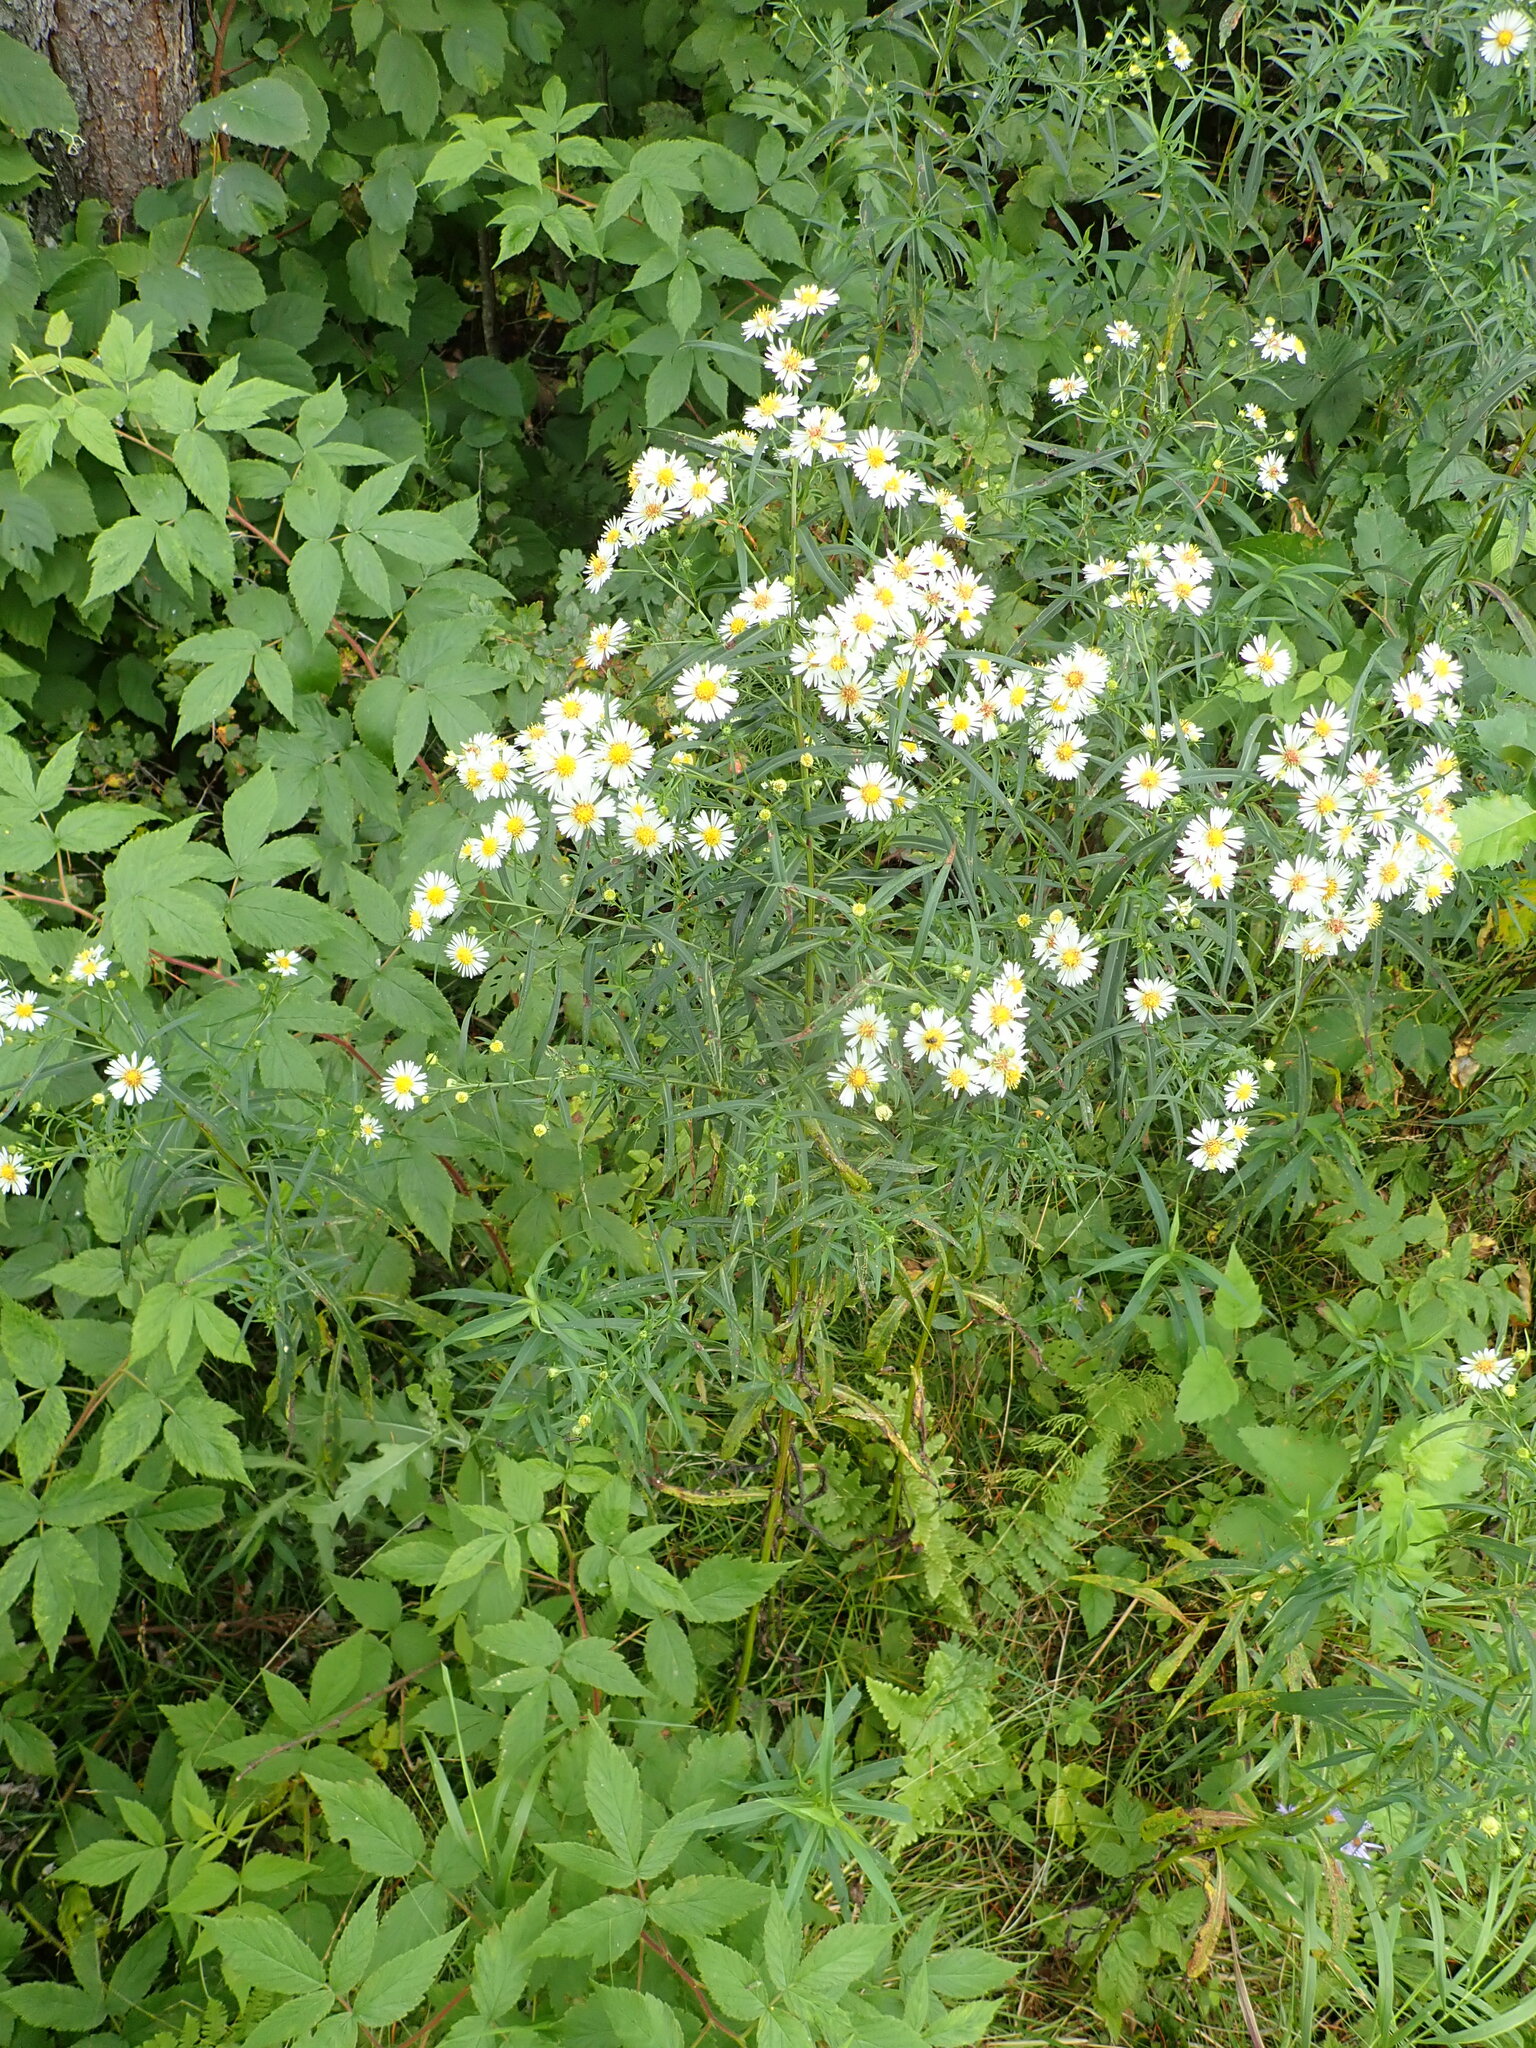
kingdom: Plantae
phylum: Tracheophyta
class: Magnoliopsida
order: Asterales
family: Asteraceae
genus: Symphyotrichum
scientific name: Symphyotrichum lanceolatum
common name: Panicled aster
